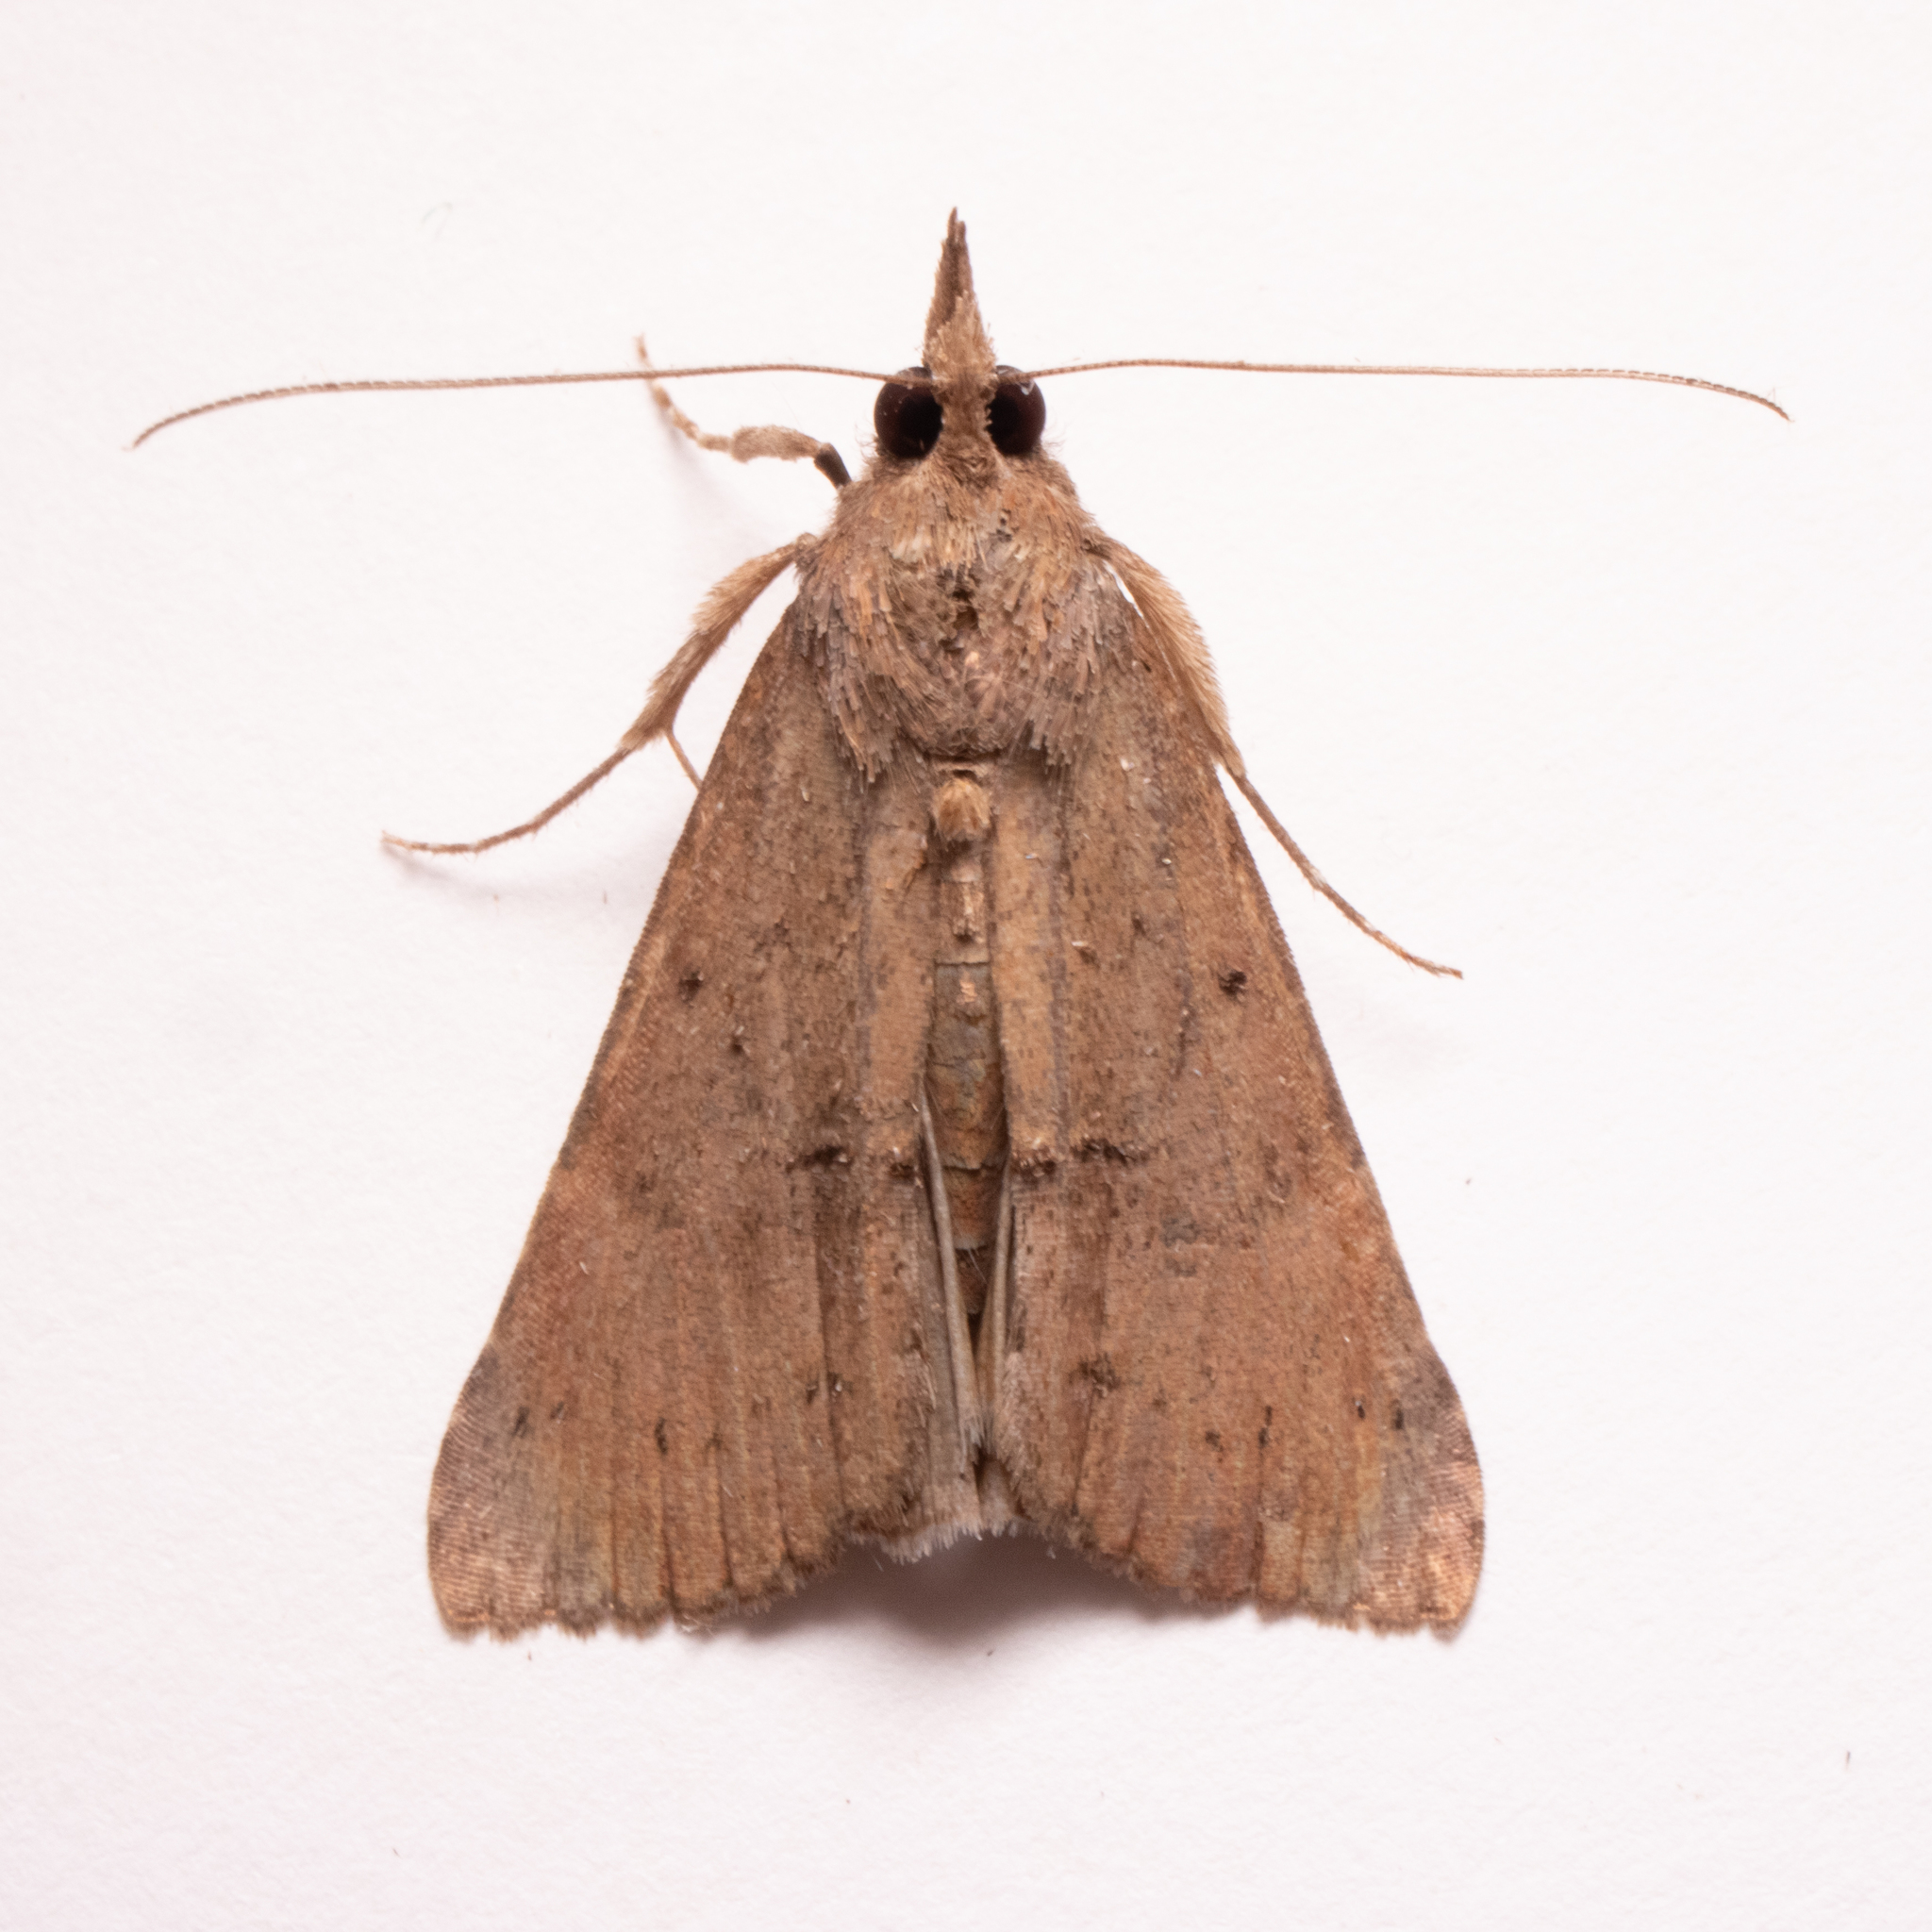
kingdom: Animalia
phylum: Arthropoda
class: Insecta
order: Lepidoptera
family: Erebidae
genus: Hypena
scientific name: Hypena scabra
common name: Green cloverworm
